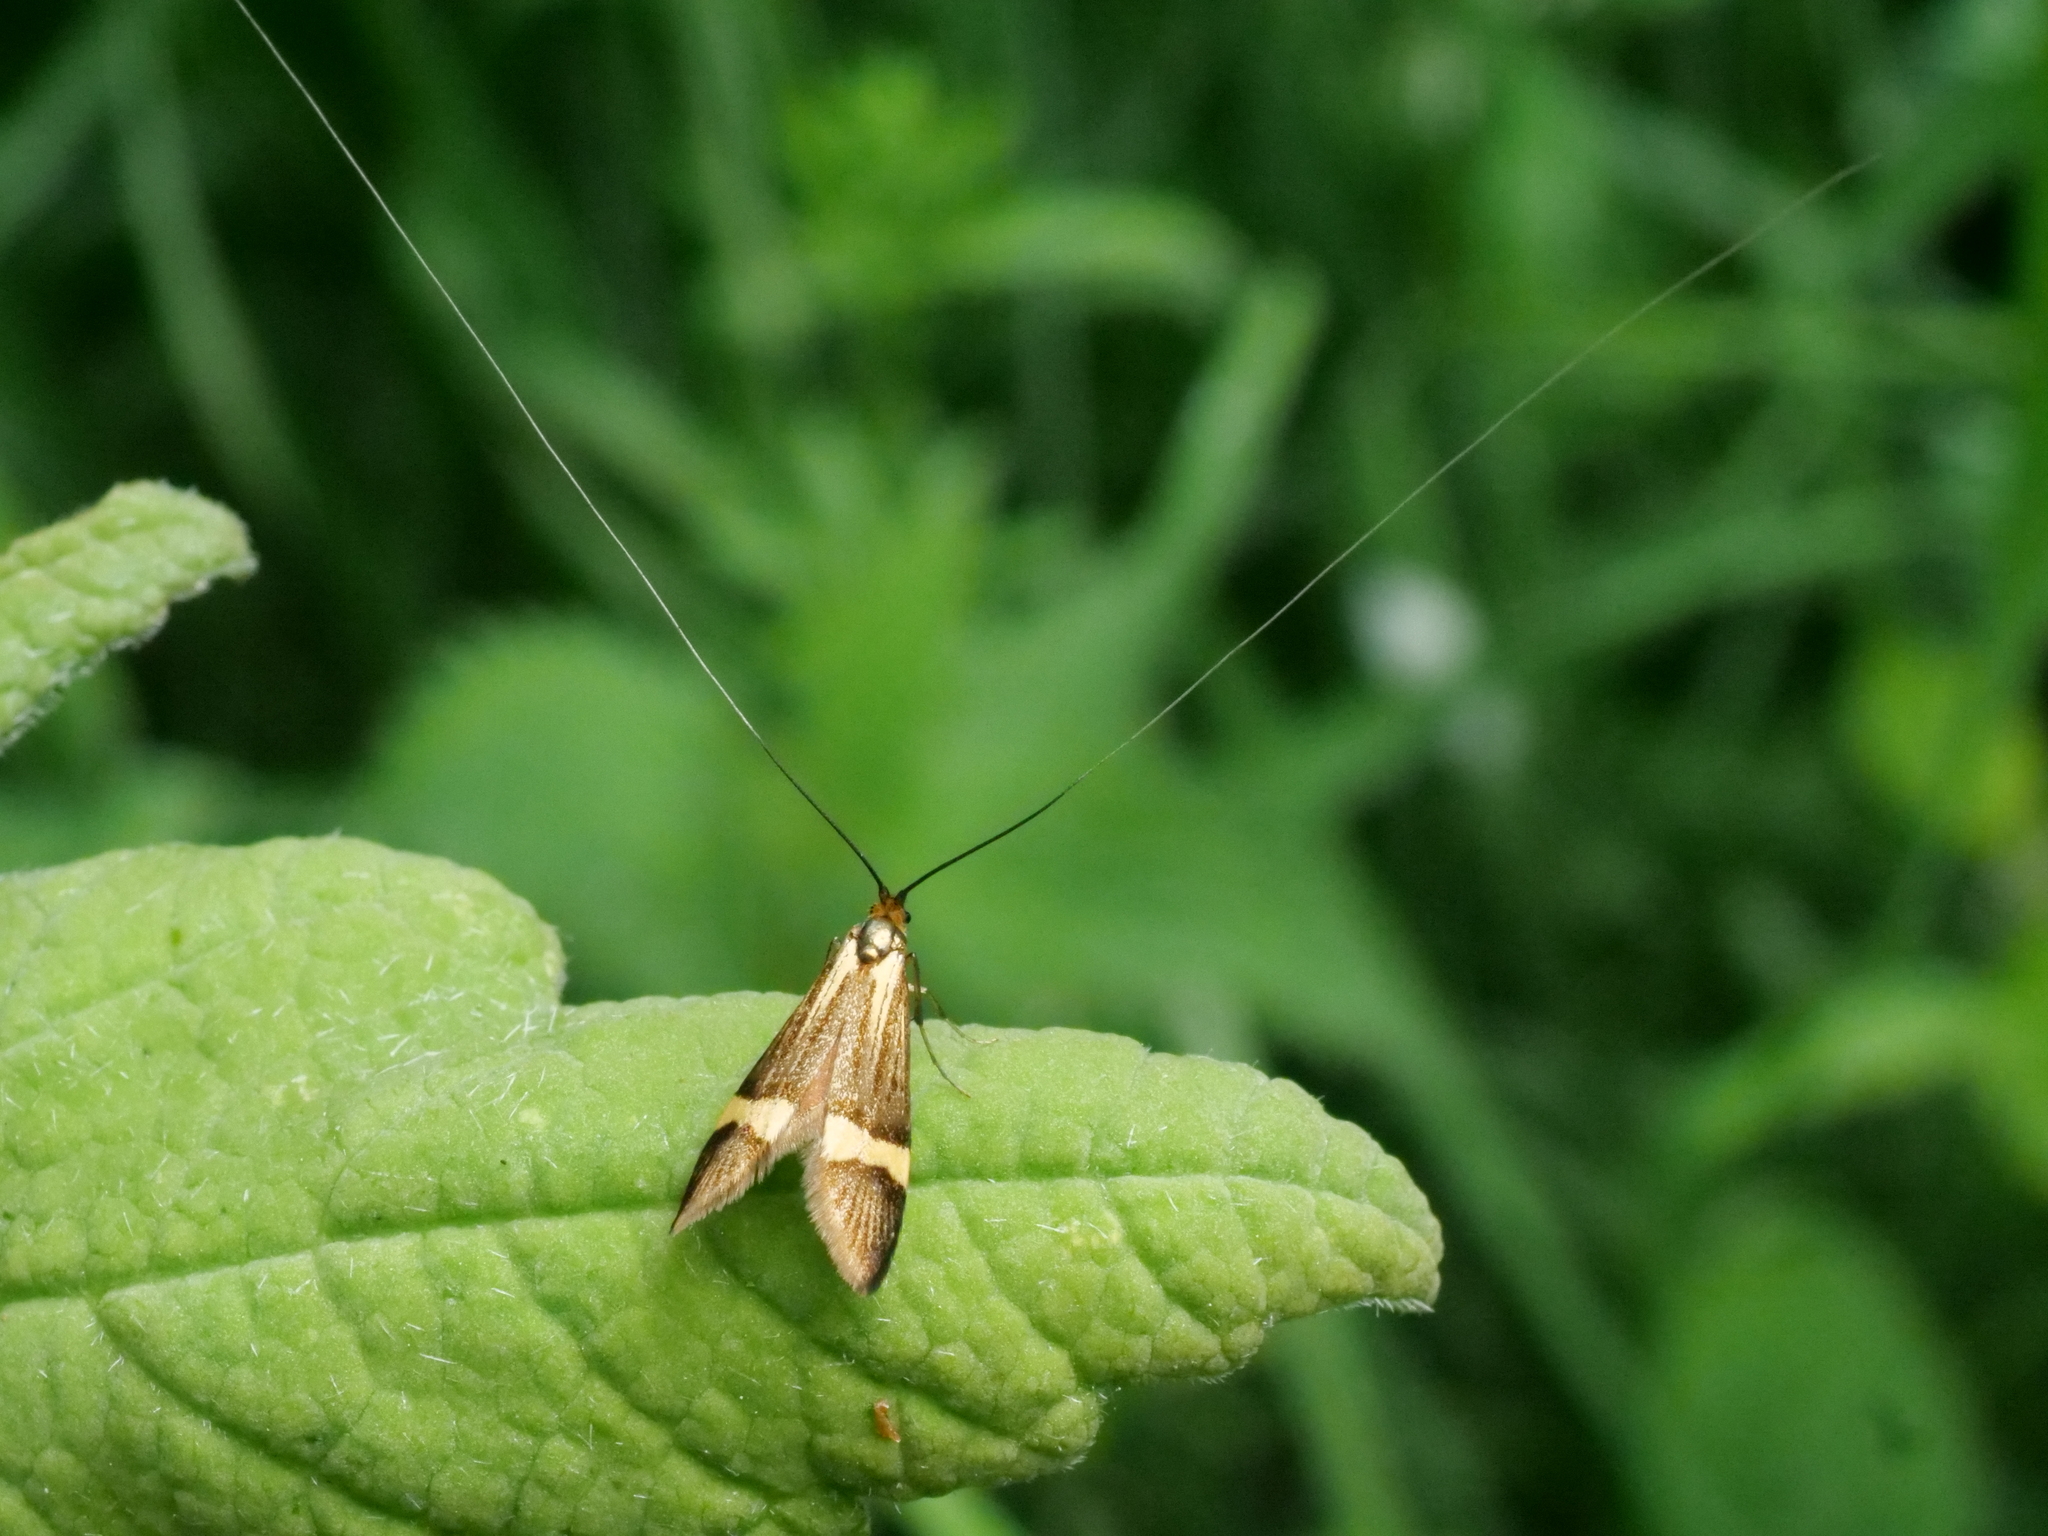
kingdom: Animalia
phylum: Arthropoda
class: Insecta
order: Lepidoptera
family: Adelidae
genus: Nemophora
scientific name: Nemophora degeerella
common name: Yellow-barred long-horn
